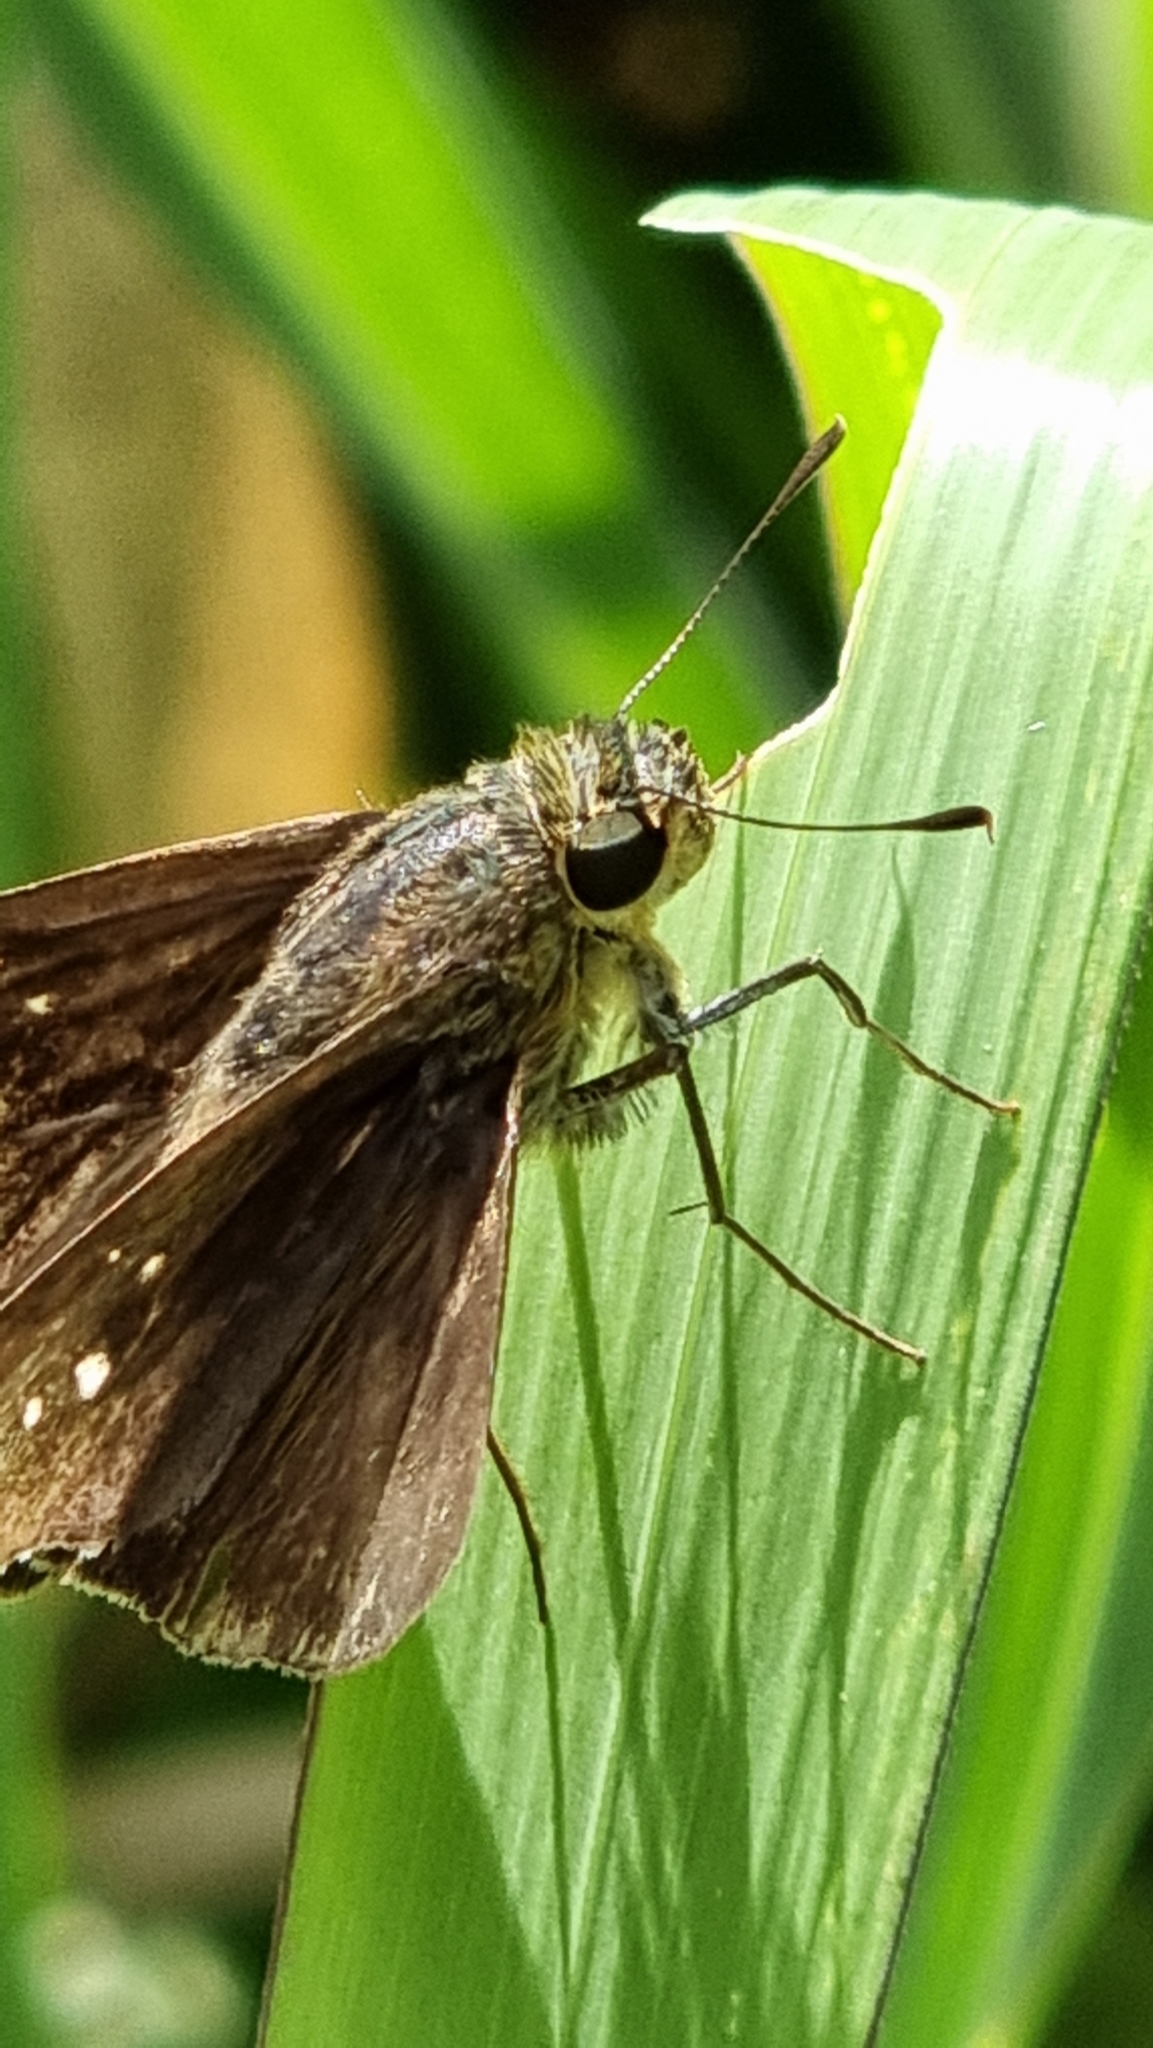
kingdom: Animalia
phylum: Arthropoda
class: Insecta
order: Lepidoptera
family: Hesperiidae
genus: Pelopidas
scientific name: Pelopidas agna
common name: Little branded swift
